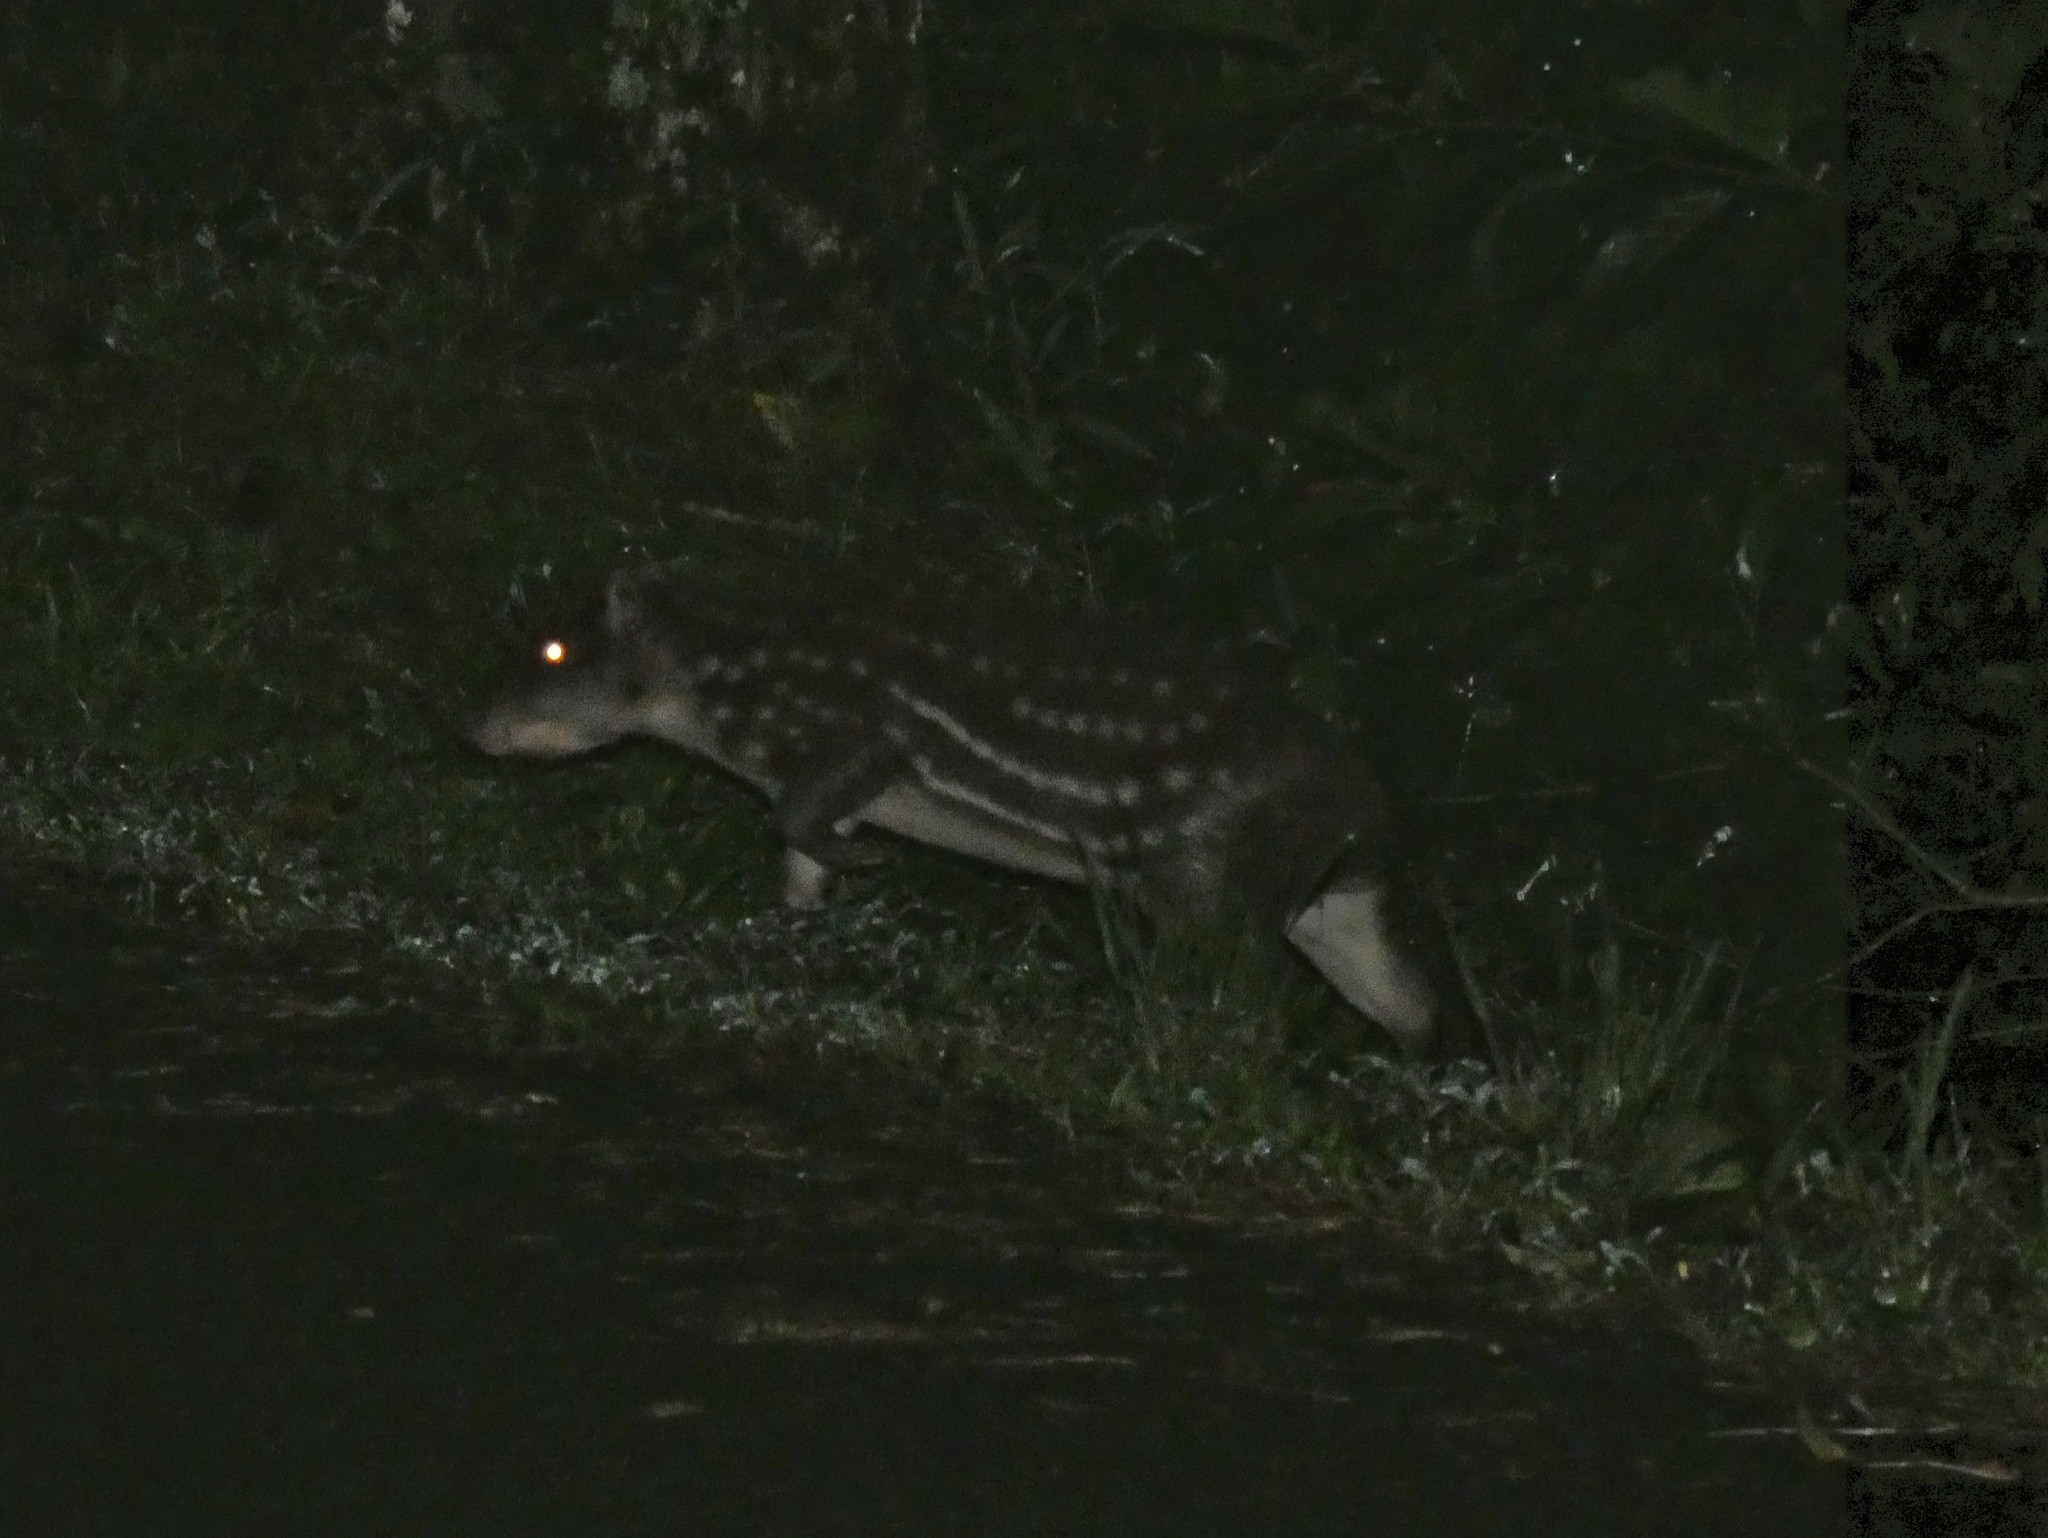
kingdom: Animalia
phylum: Chordata
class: Mammalia
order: Rodentia
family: Cuniculidae
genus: Cuniculus
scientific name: Cuniculus paca
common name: Lowland paca
